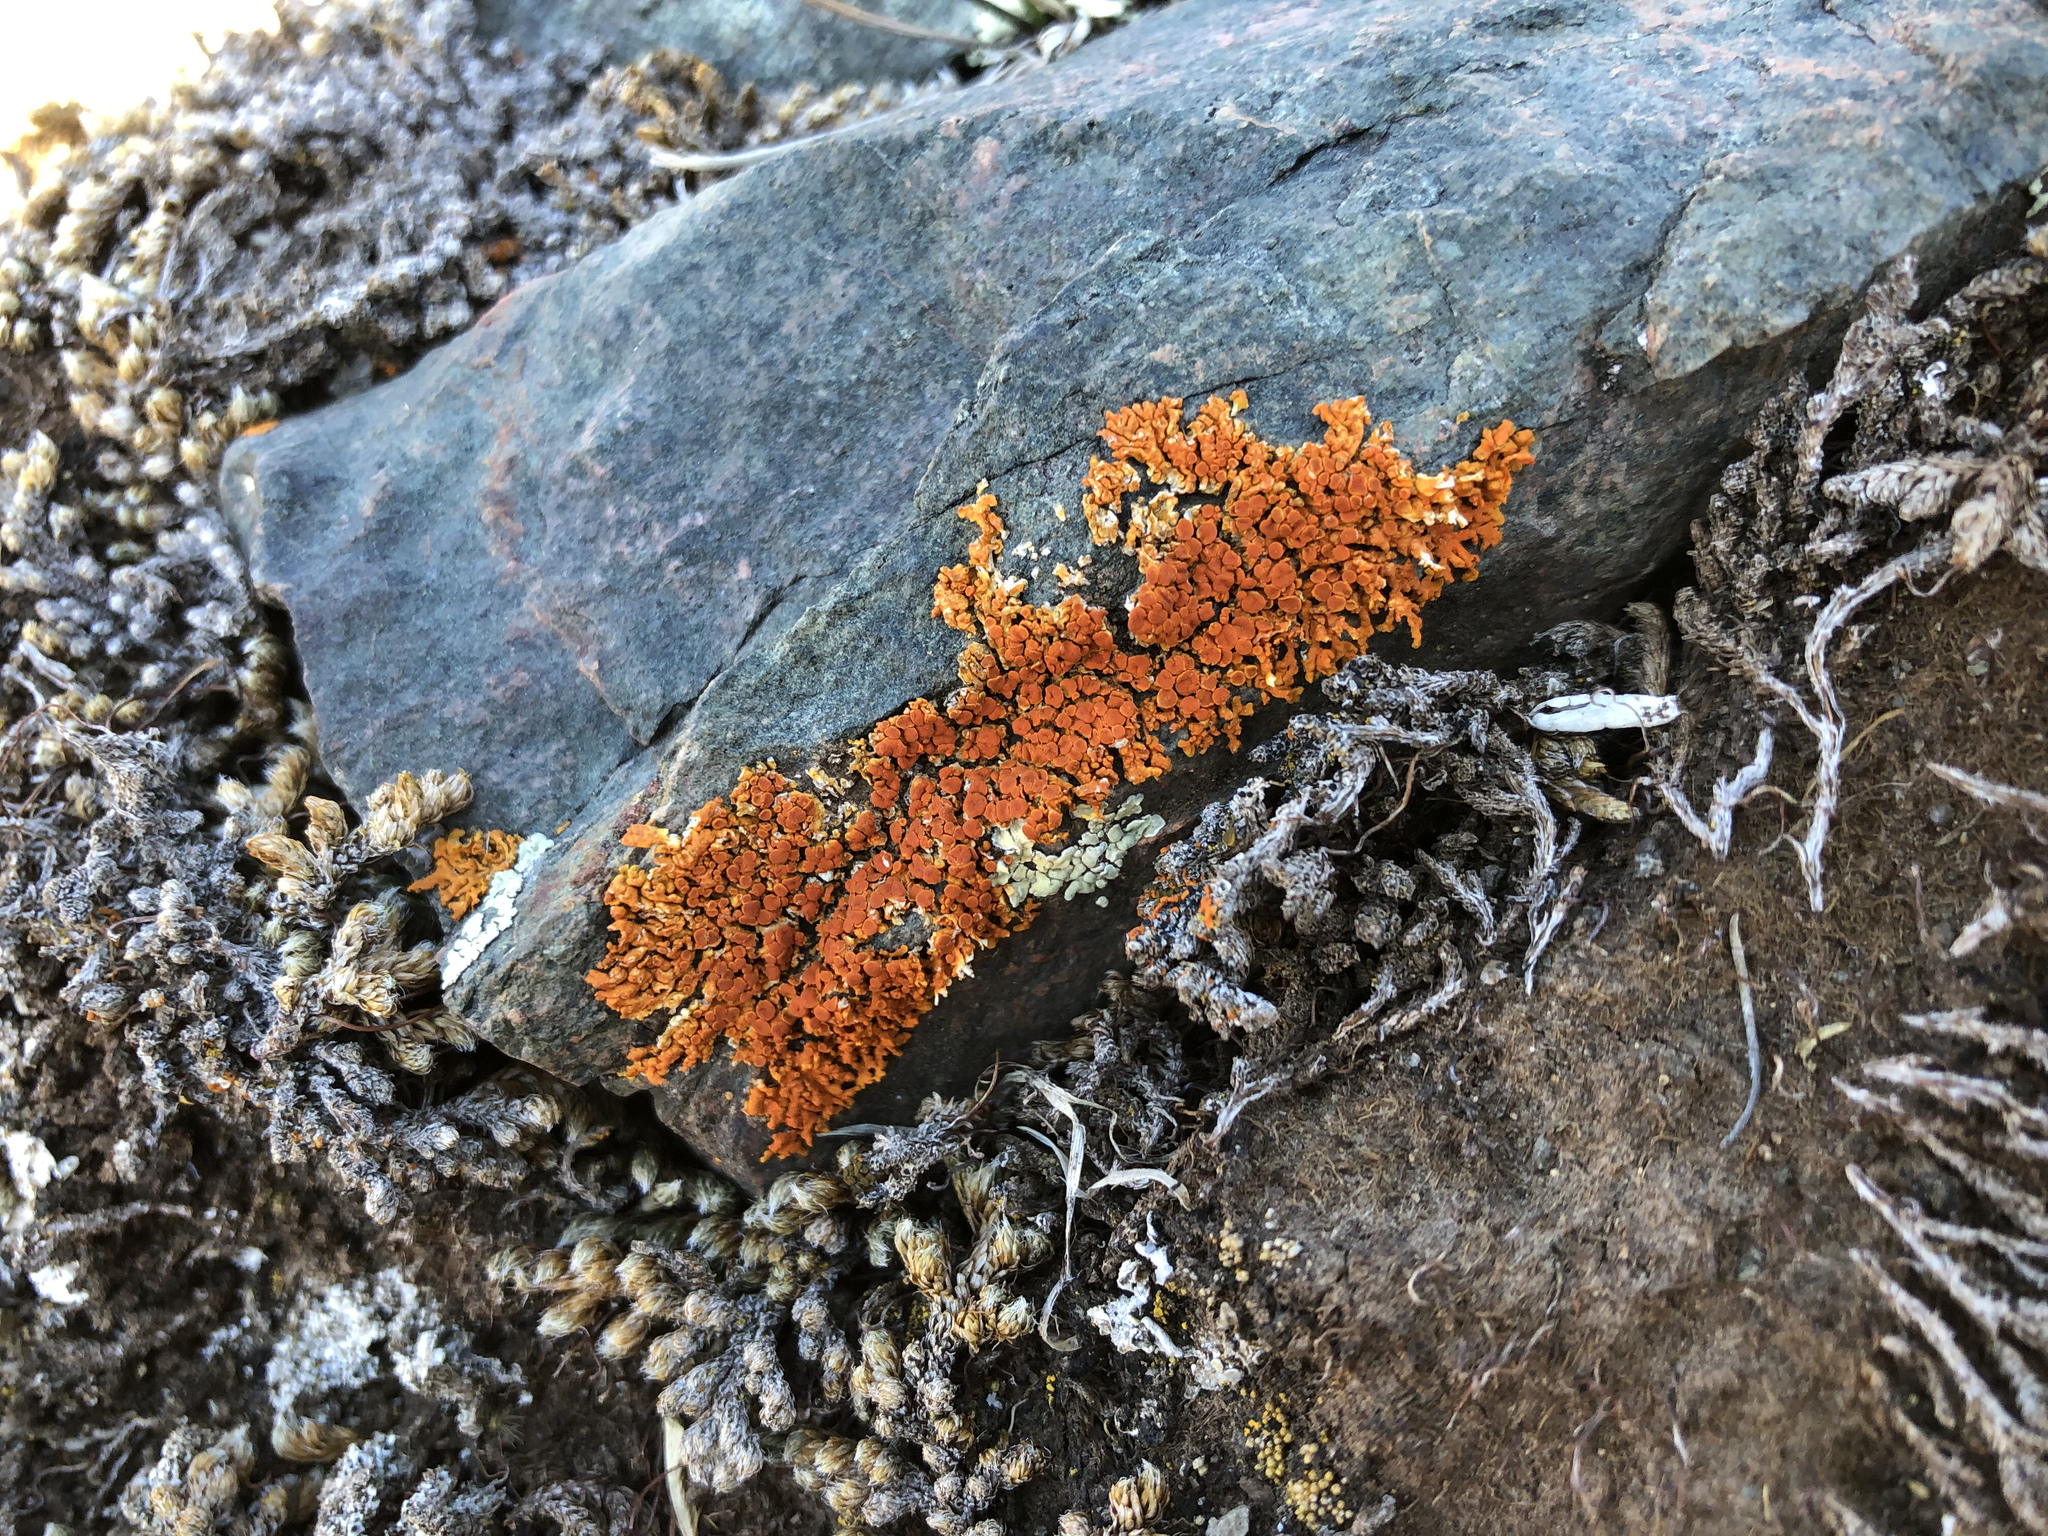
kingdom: Fungi
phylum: Ascomycota
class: Lecanoromycetes
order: Teloschistales
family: Teloschistaceae
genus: Xanthoria
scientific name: Xanthoria elegans
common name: Elegant sunburst lichen
